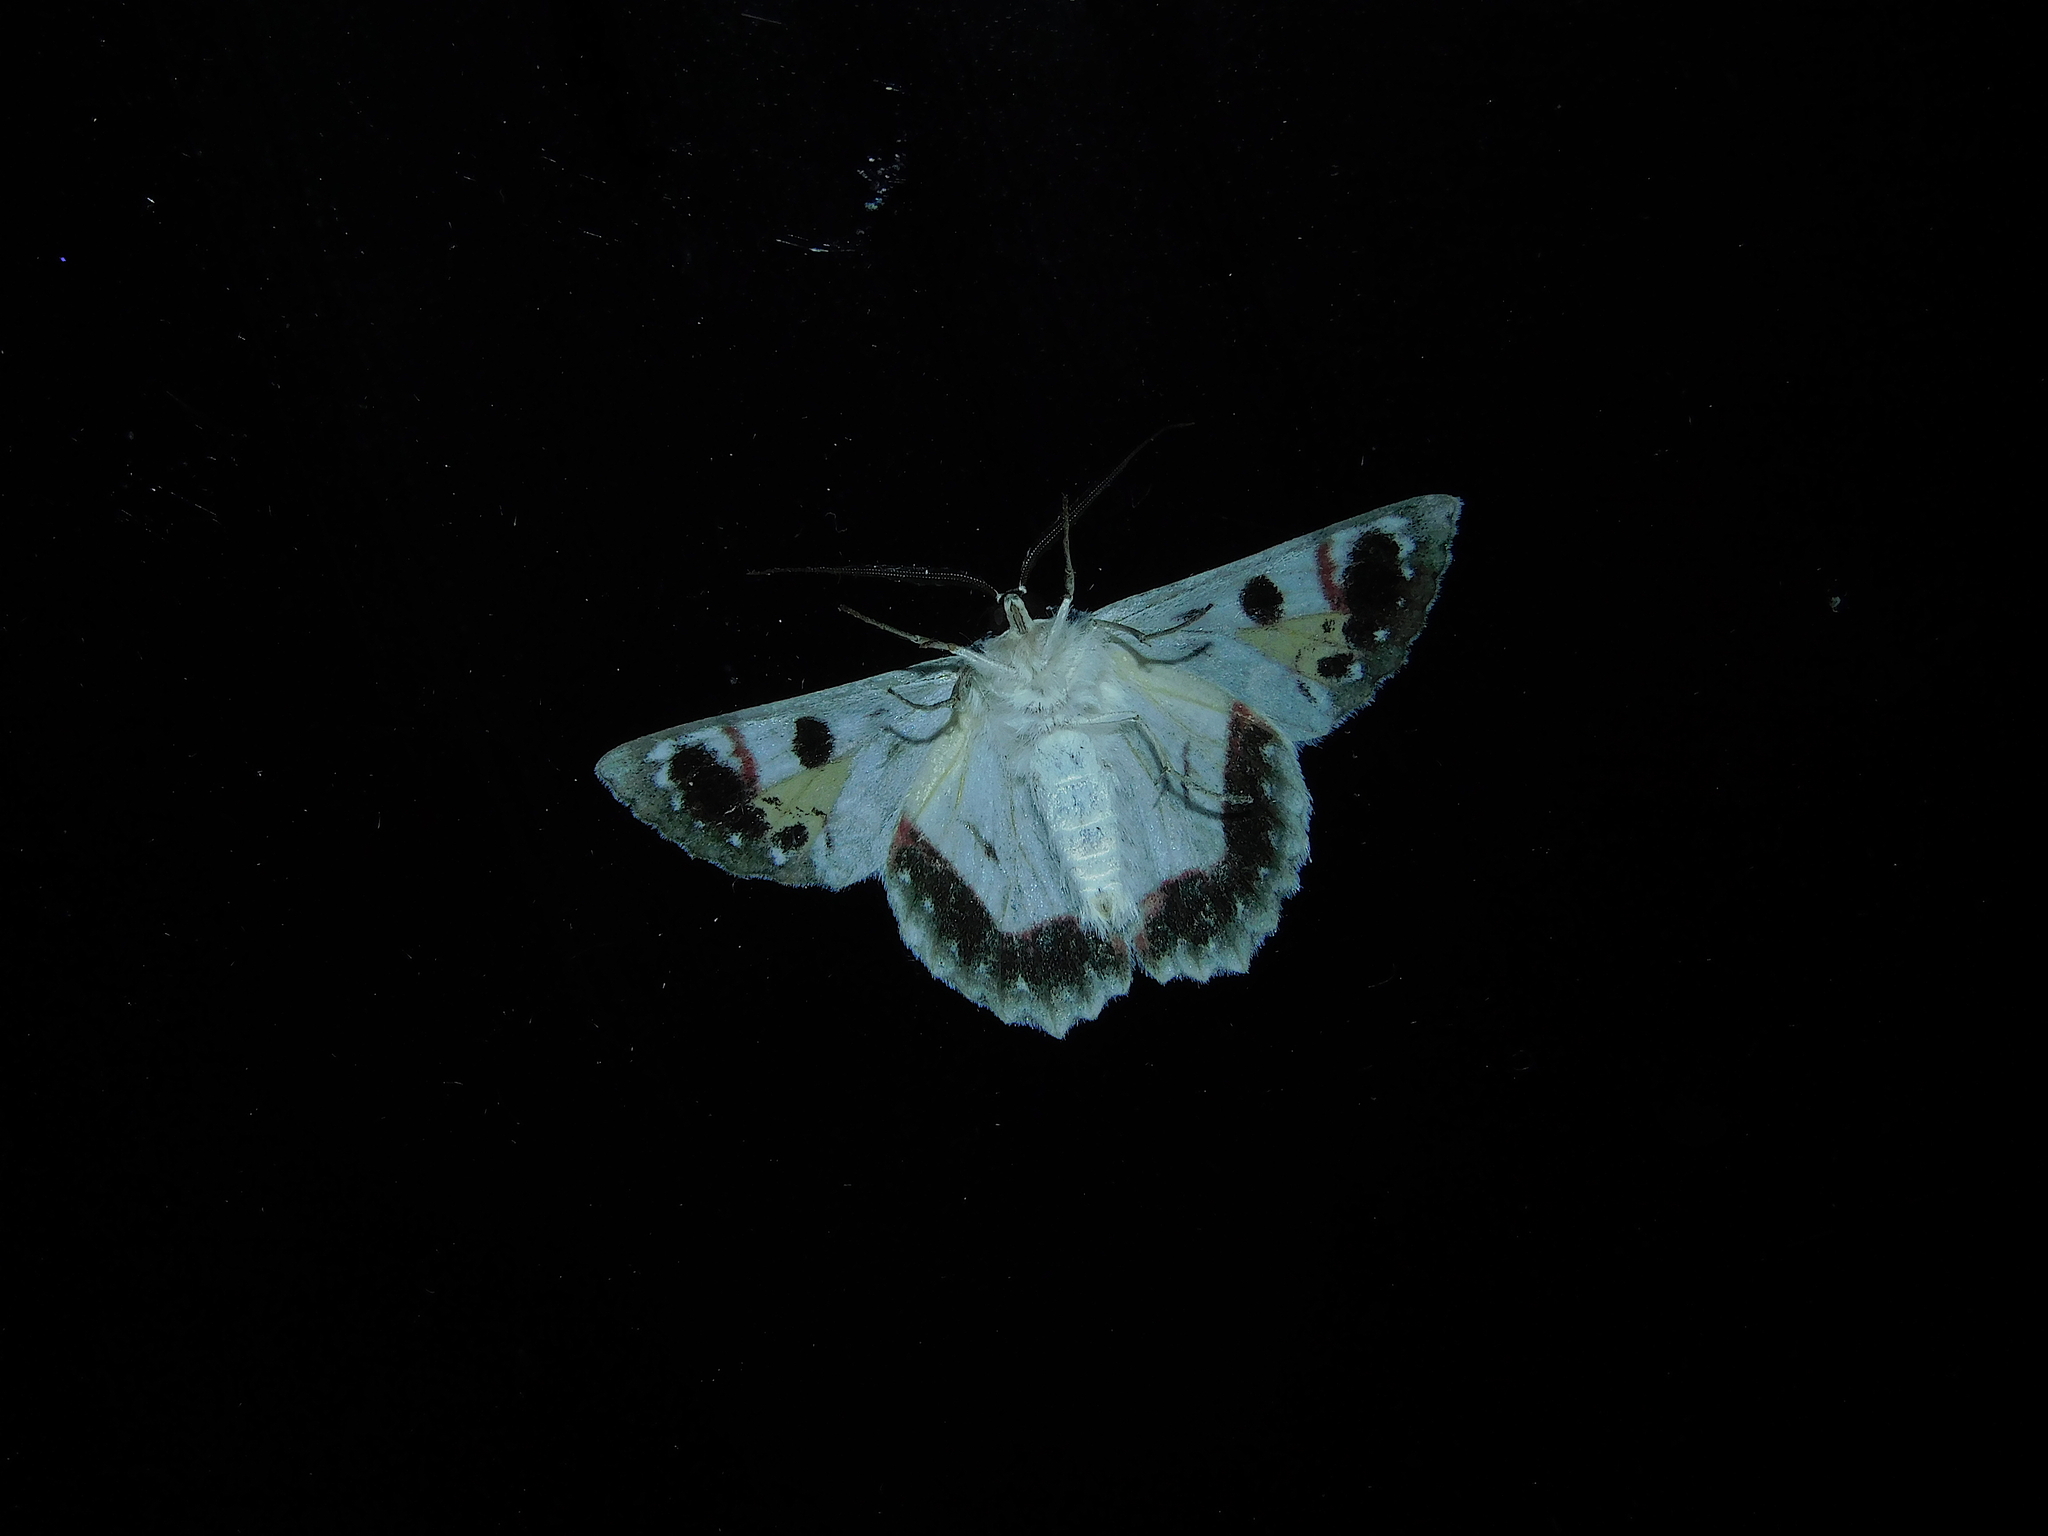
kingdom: Animalia
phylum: Arthropoda
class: Insecta
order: Lepidoptera
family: Geometridae
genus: Crypsiphona
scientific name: Crypsiphona
